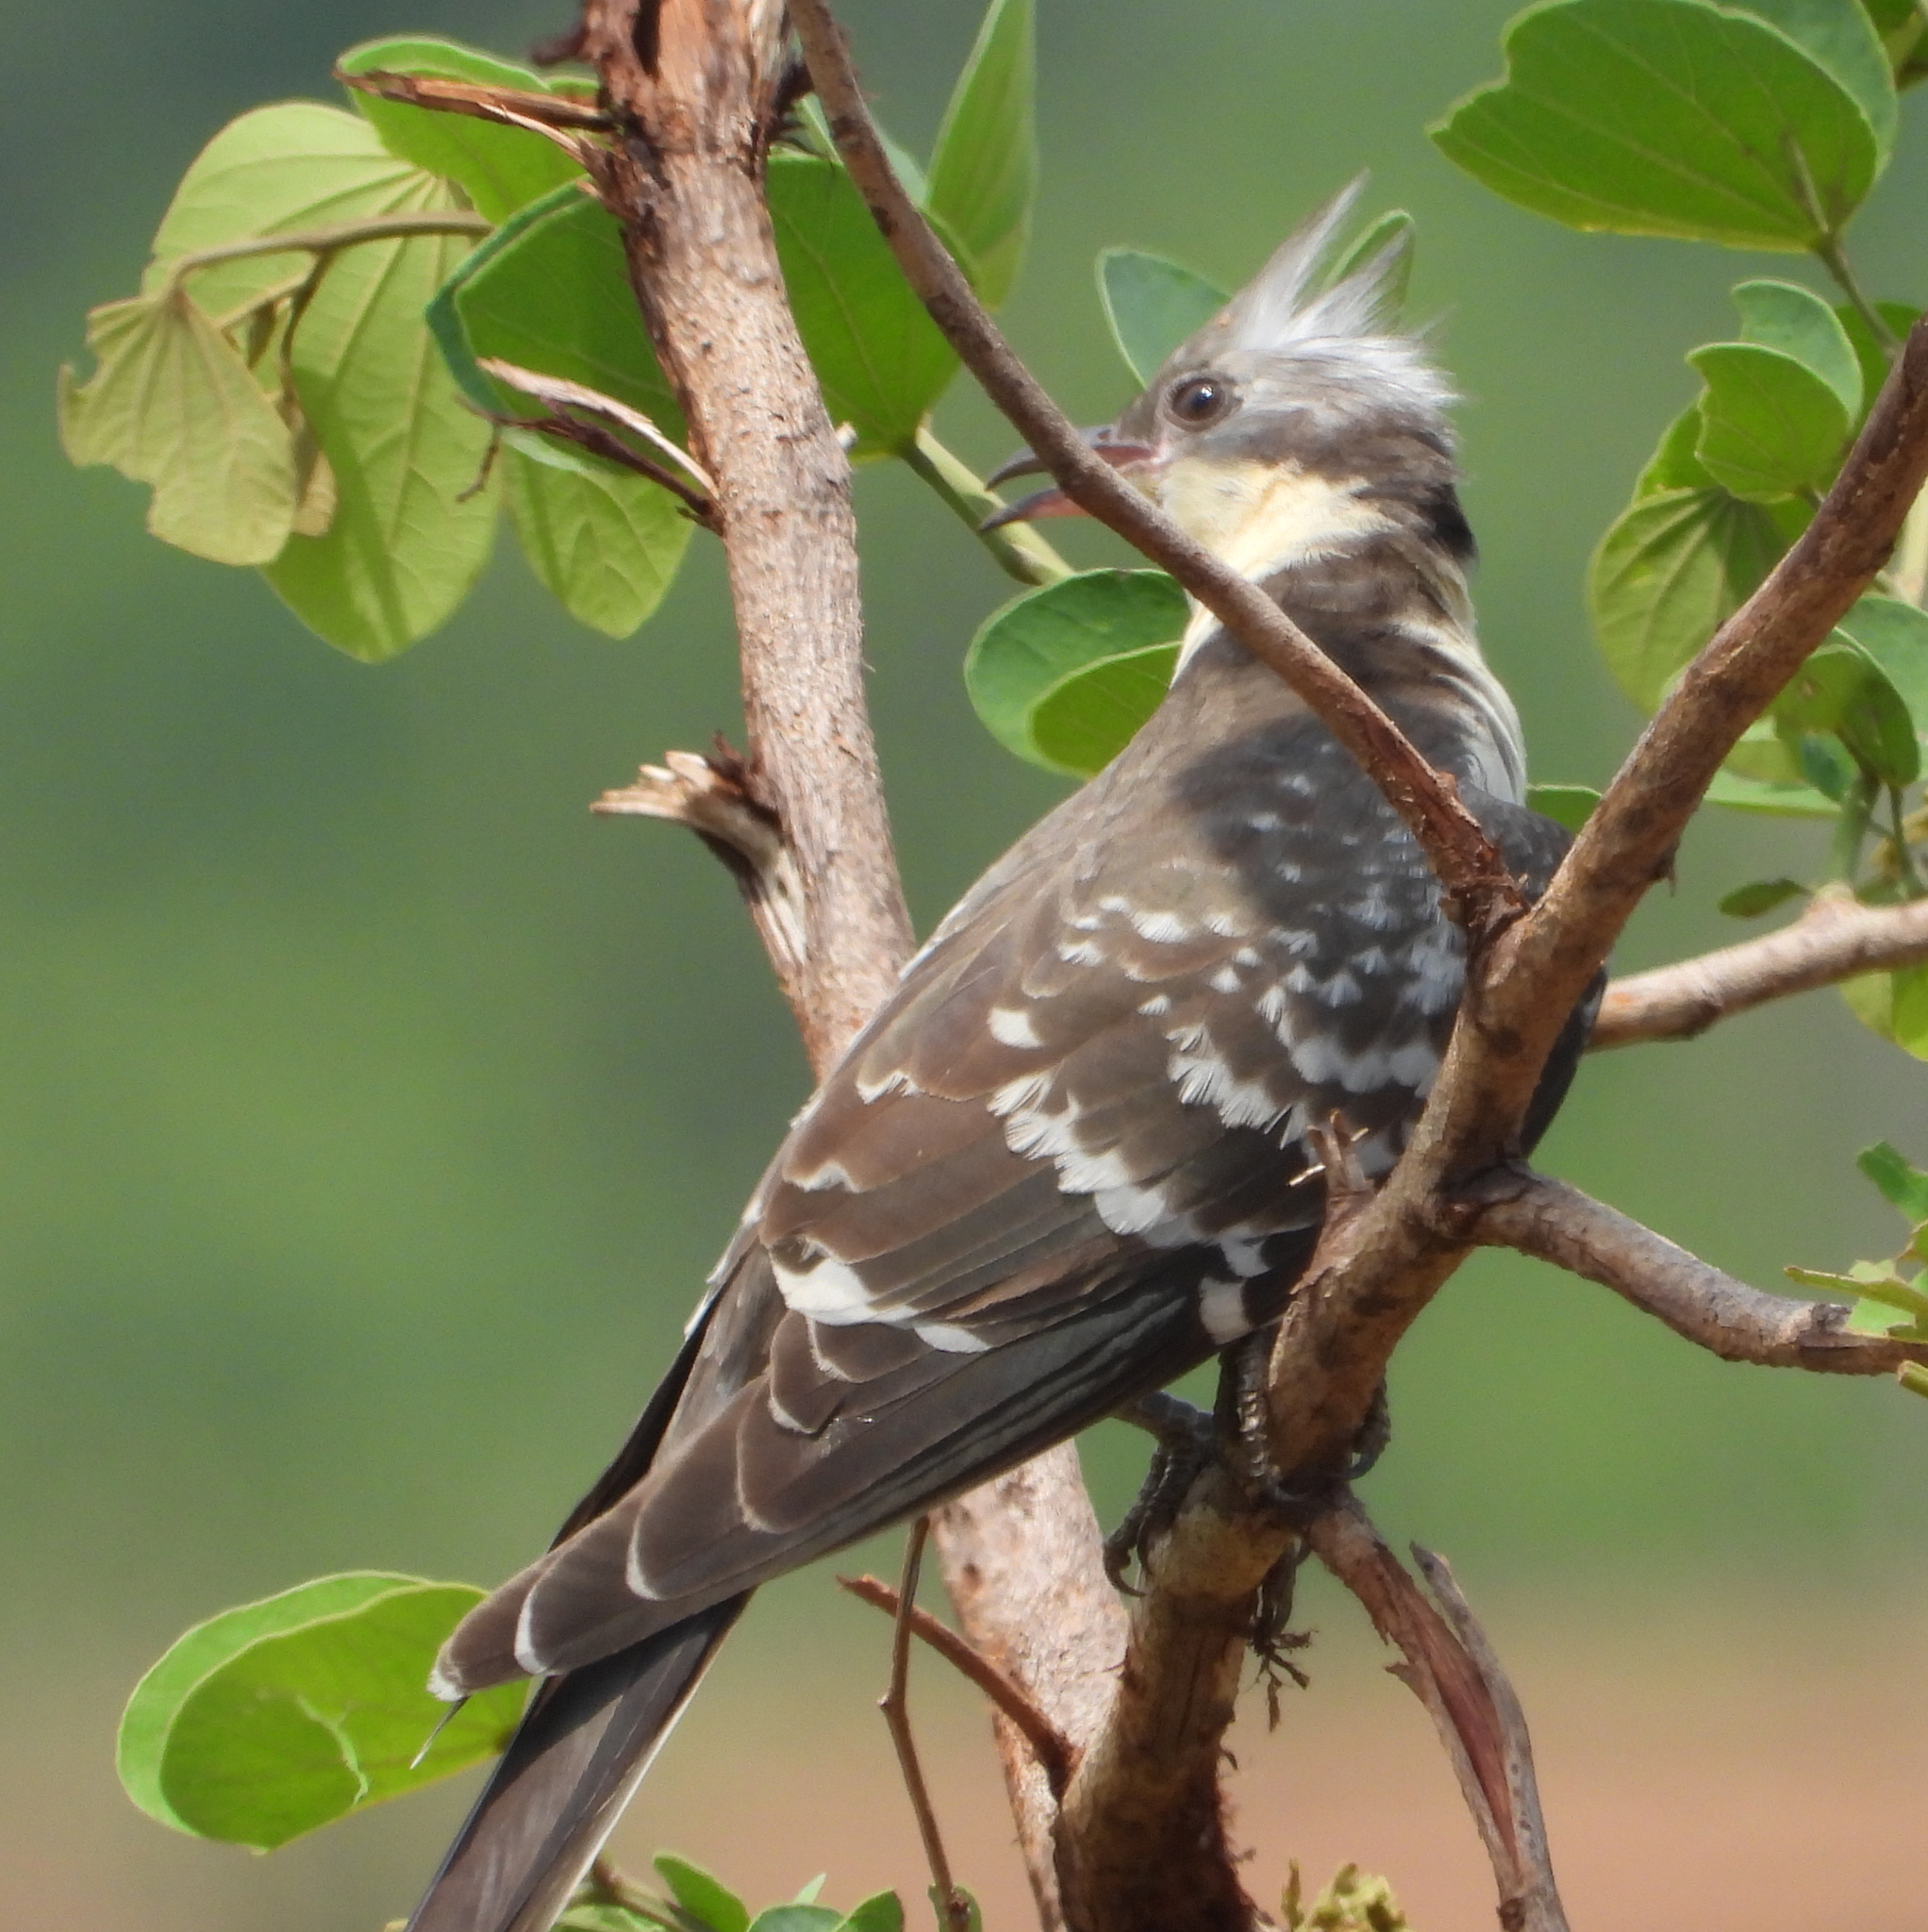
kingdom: Animalia
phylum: Chordata
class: Aves
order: Cuculiformes
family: Cuculidae
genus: Clamator
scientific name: Clamator glandarius
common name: Great spotted cuckoo
